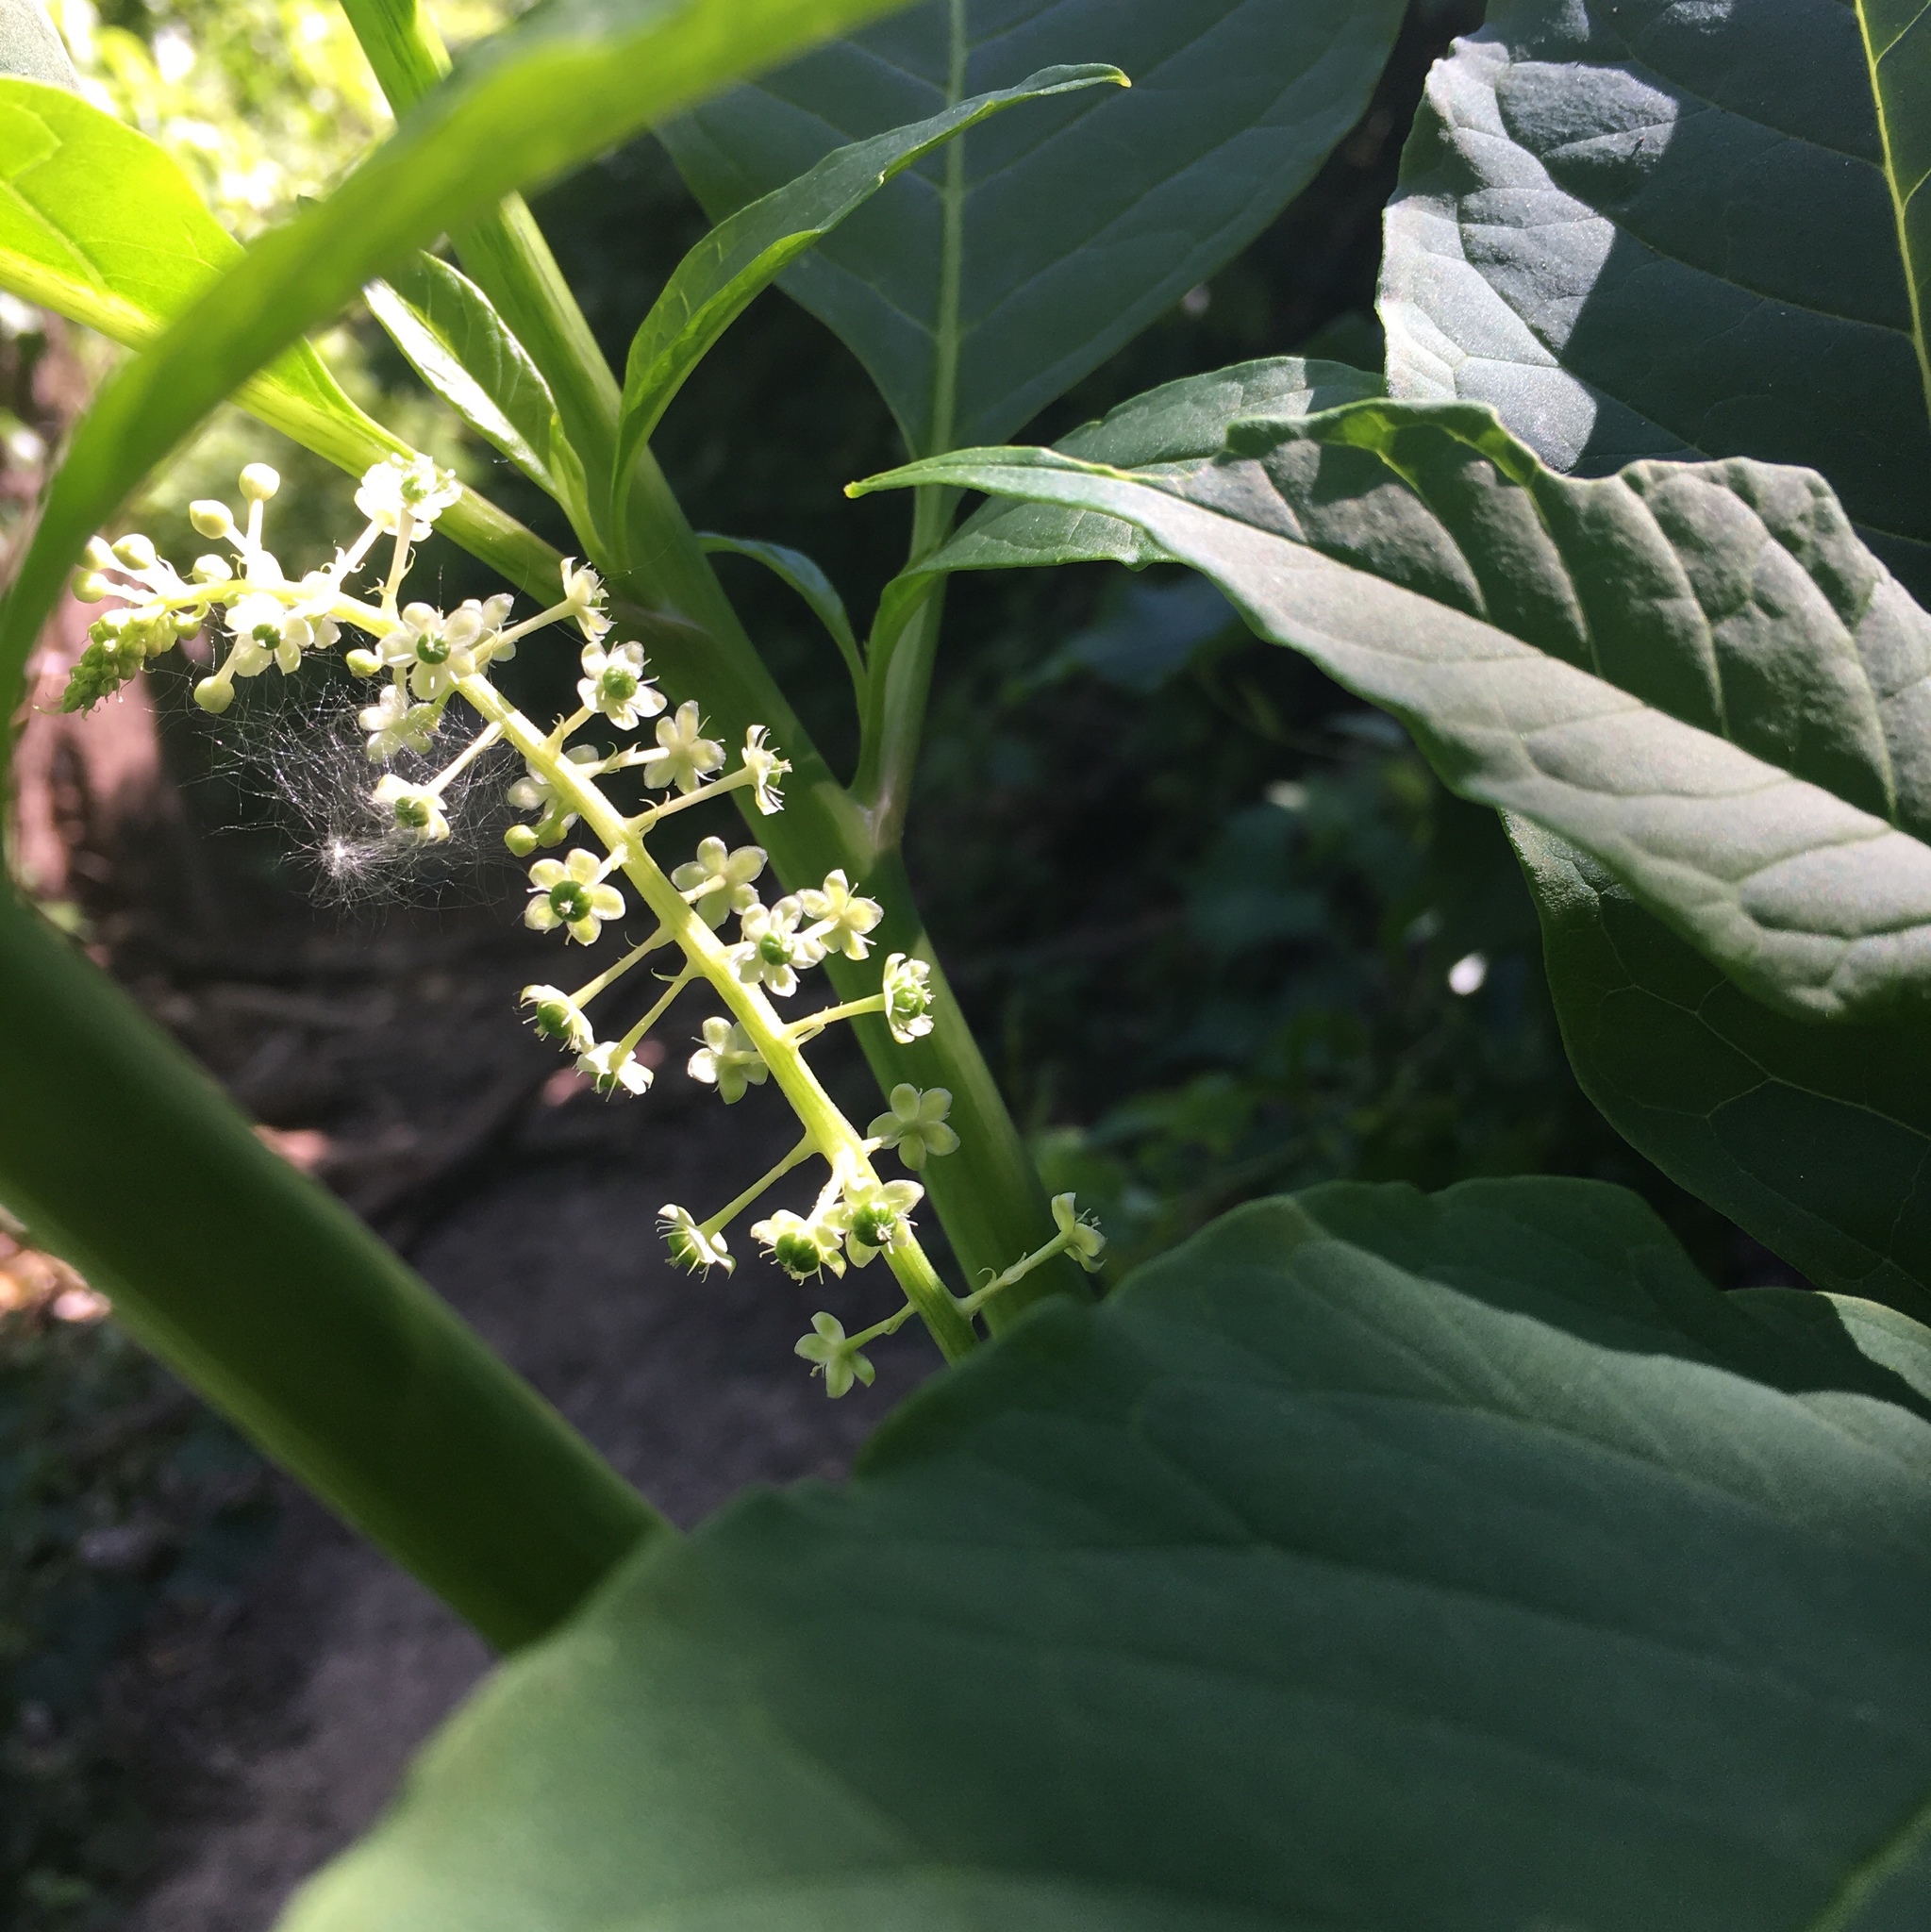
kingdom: Plantae
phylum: Tracheophyta
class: Magnoliopsida
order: Caryophyllales
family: Phytolaccaceae
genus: Phytolacca
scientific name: Phytolacca americana
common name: American pokeweed
